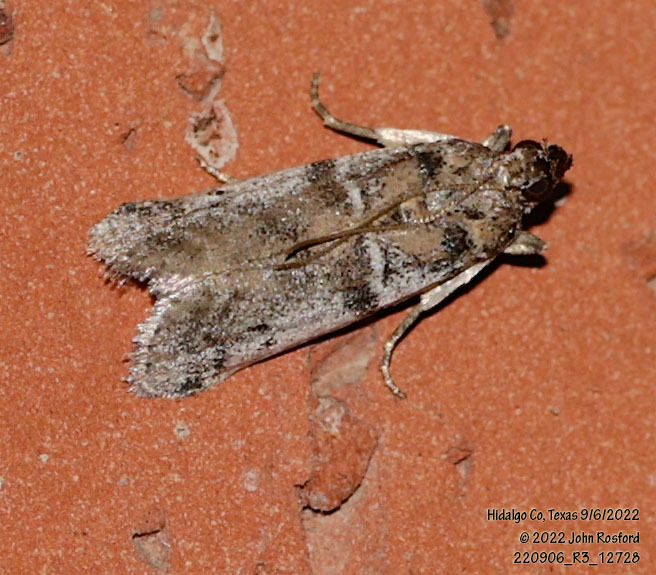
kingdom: Animalia
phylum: Arthropoda
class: Insecta
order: Lepidoptera
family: Pyralidae
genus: Laetilia
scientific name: Laetilia coccidivora
